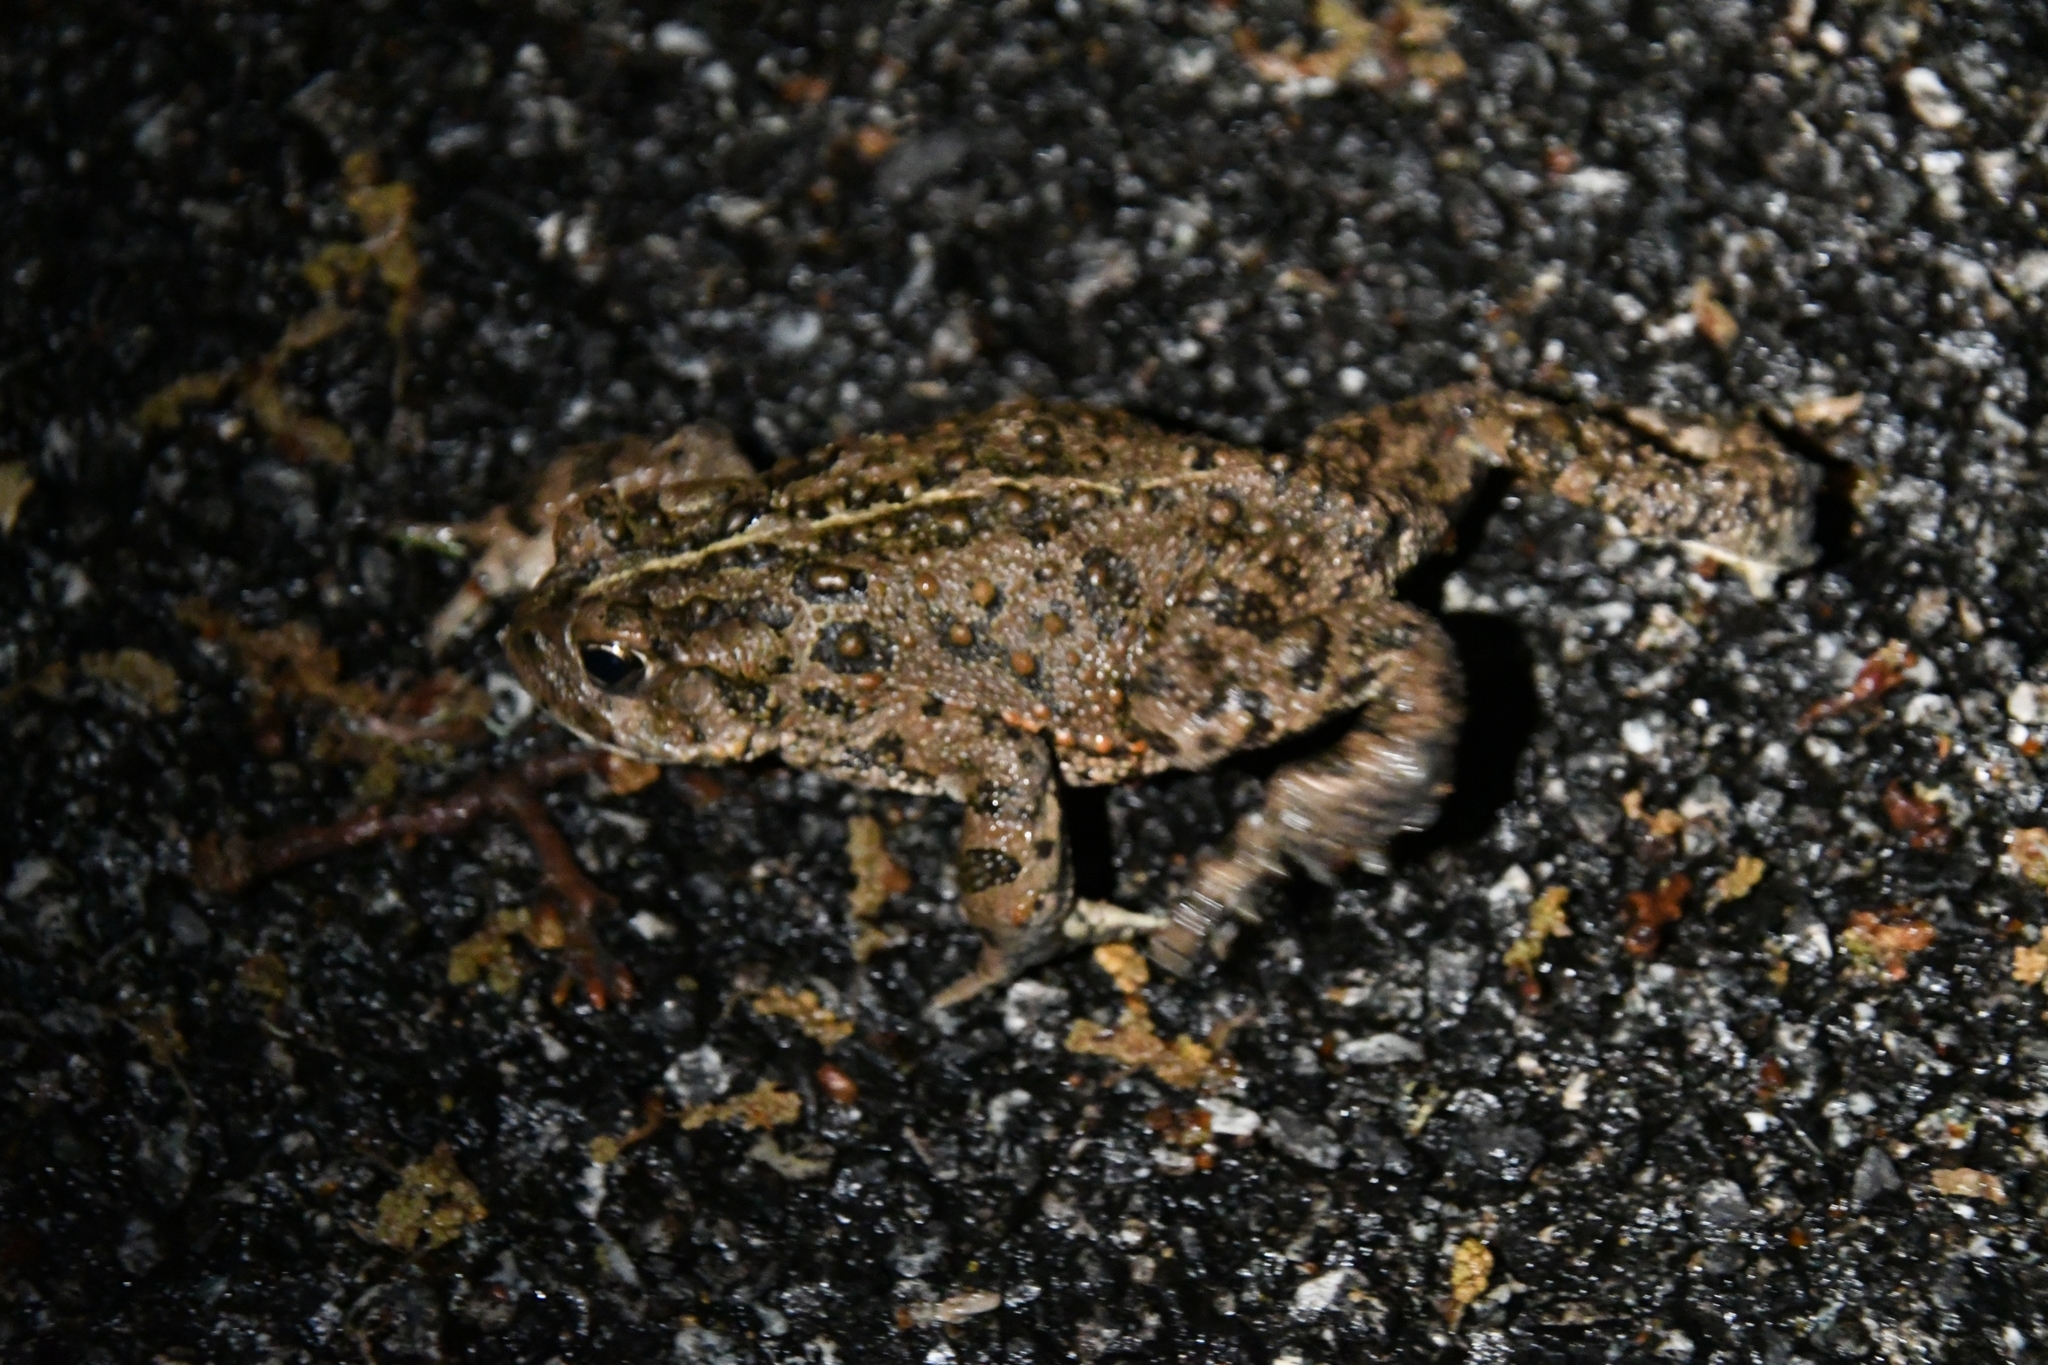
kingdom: Animalia
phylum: Chordata
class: Amphibia
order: Anura
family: Bufonidae
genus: Anaxyrus
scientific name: Anaxyrus boreas
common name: Western toad
